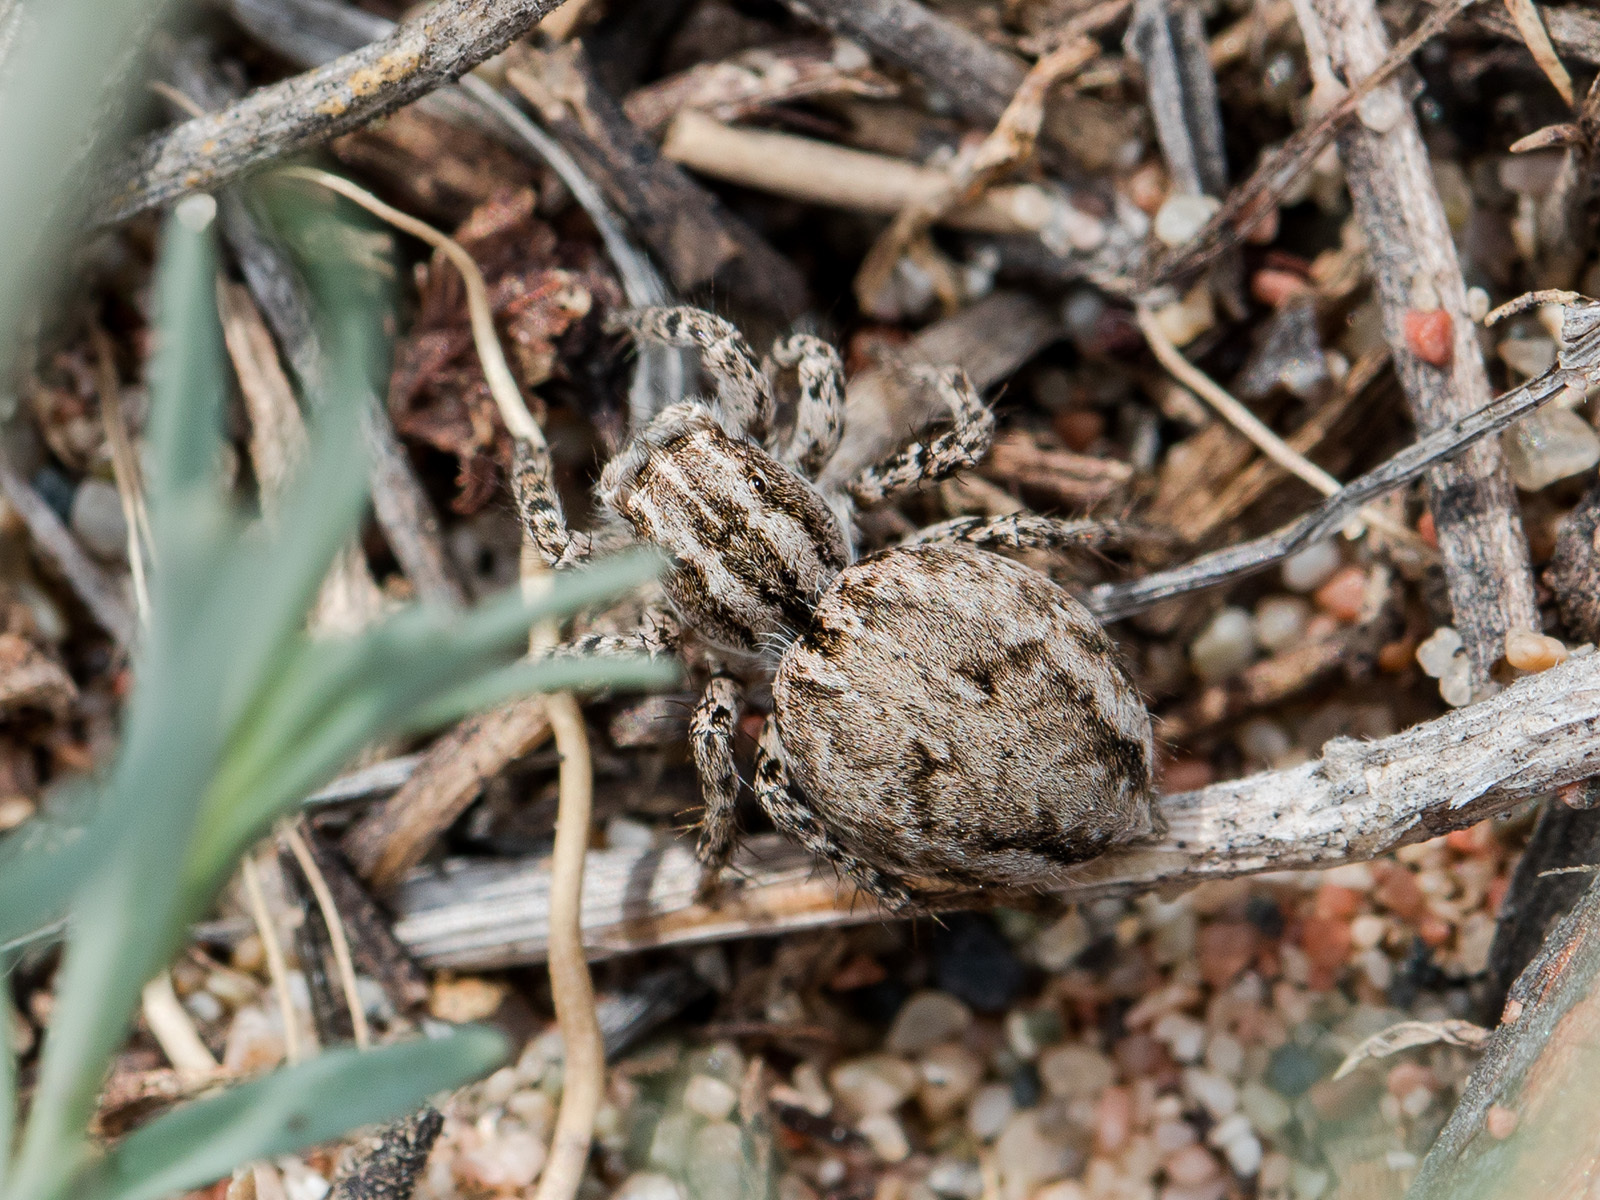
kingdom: Animalia
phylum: Arthropoda
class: Arachnida
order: Araneae
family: Salticidae
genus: Aelurillus
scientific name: Aelurillus m-nigrum
